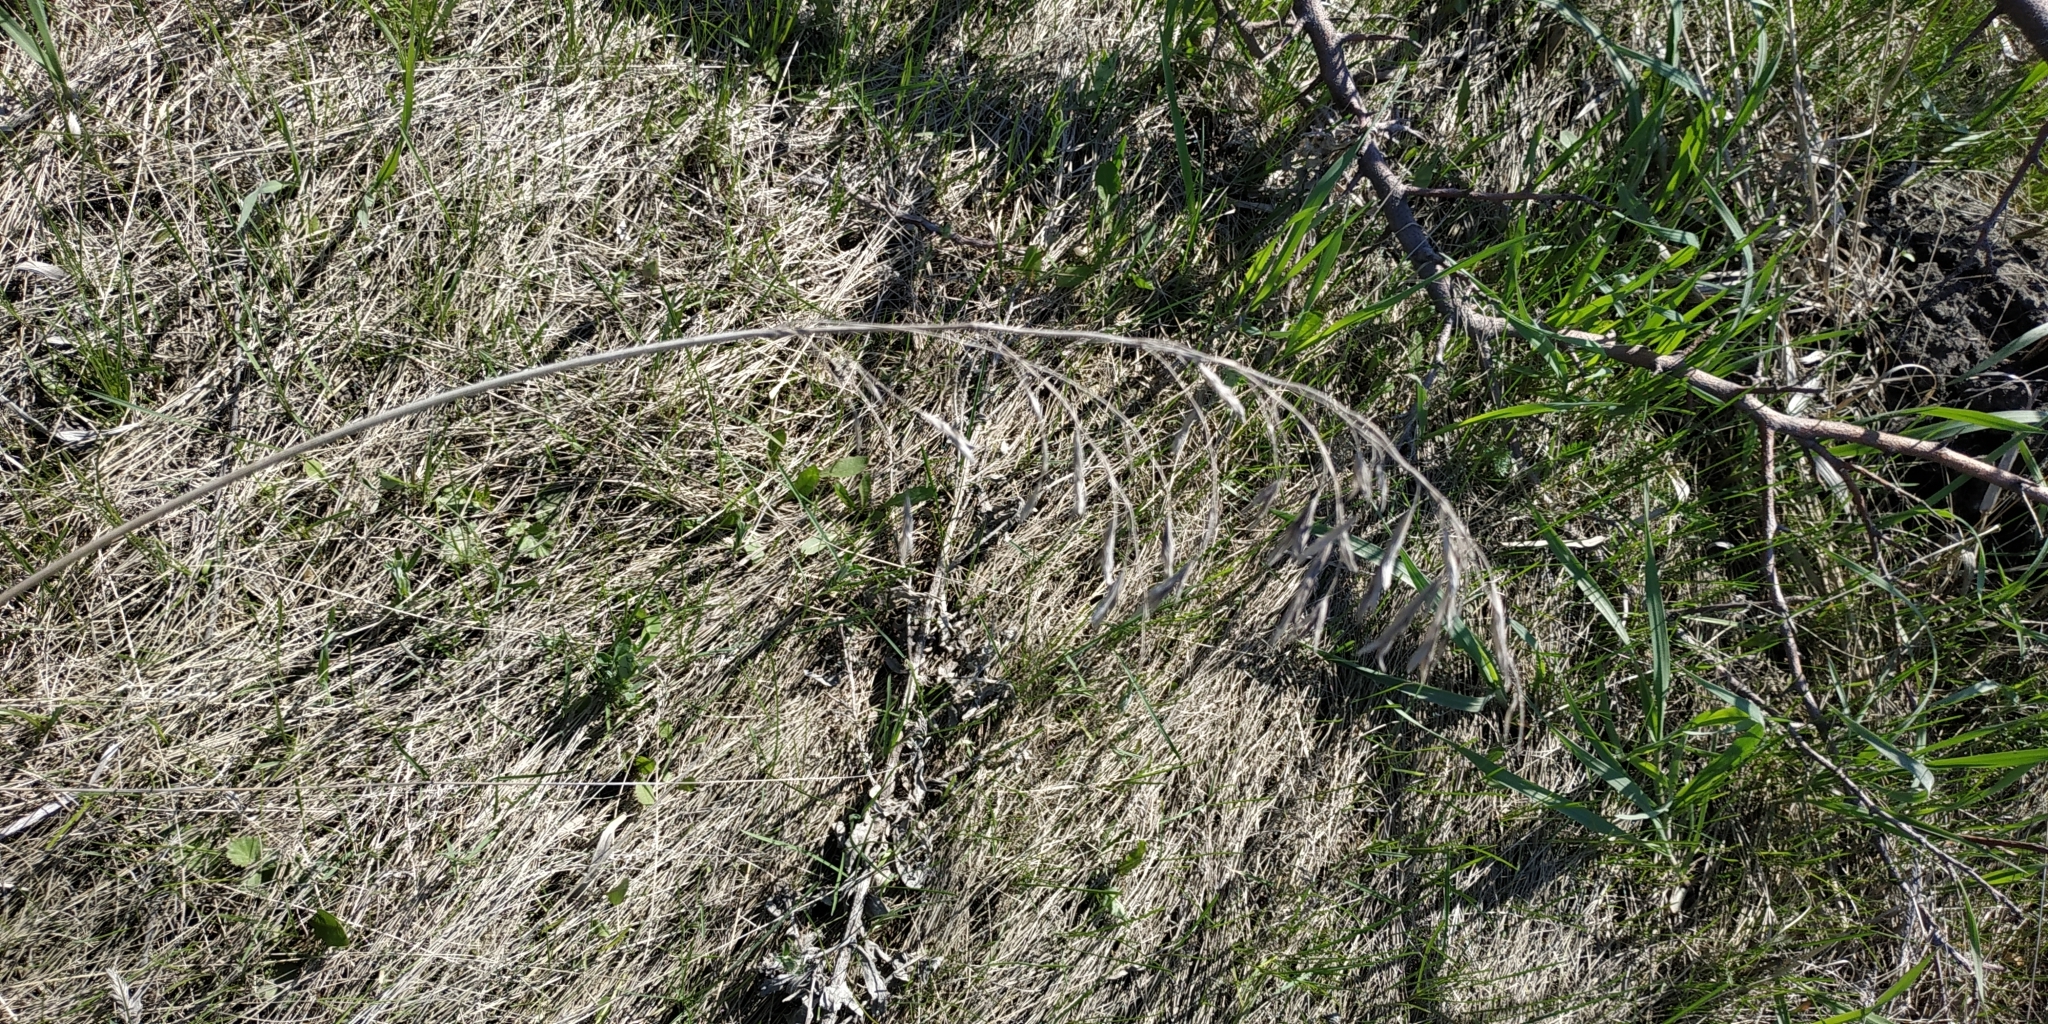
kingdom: Plantae
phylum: Tracheophyta
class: Liliopsida
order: Poales
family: Poaceae
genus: Bromus
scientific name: Bromus inermis
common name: Smooth brome
